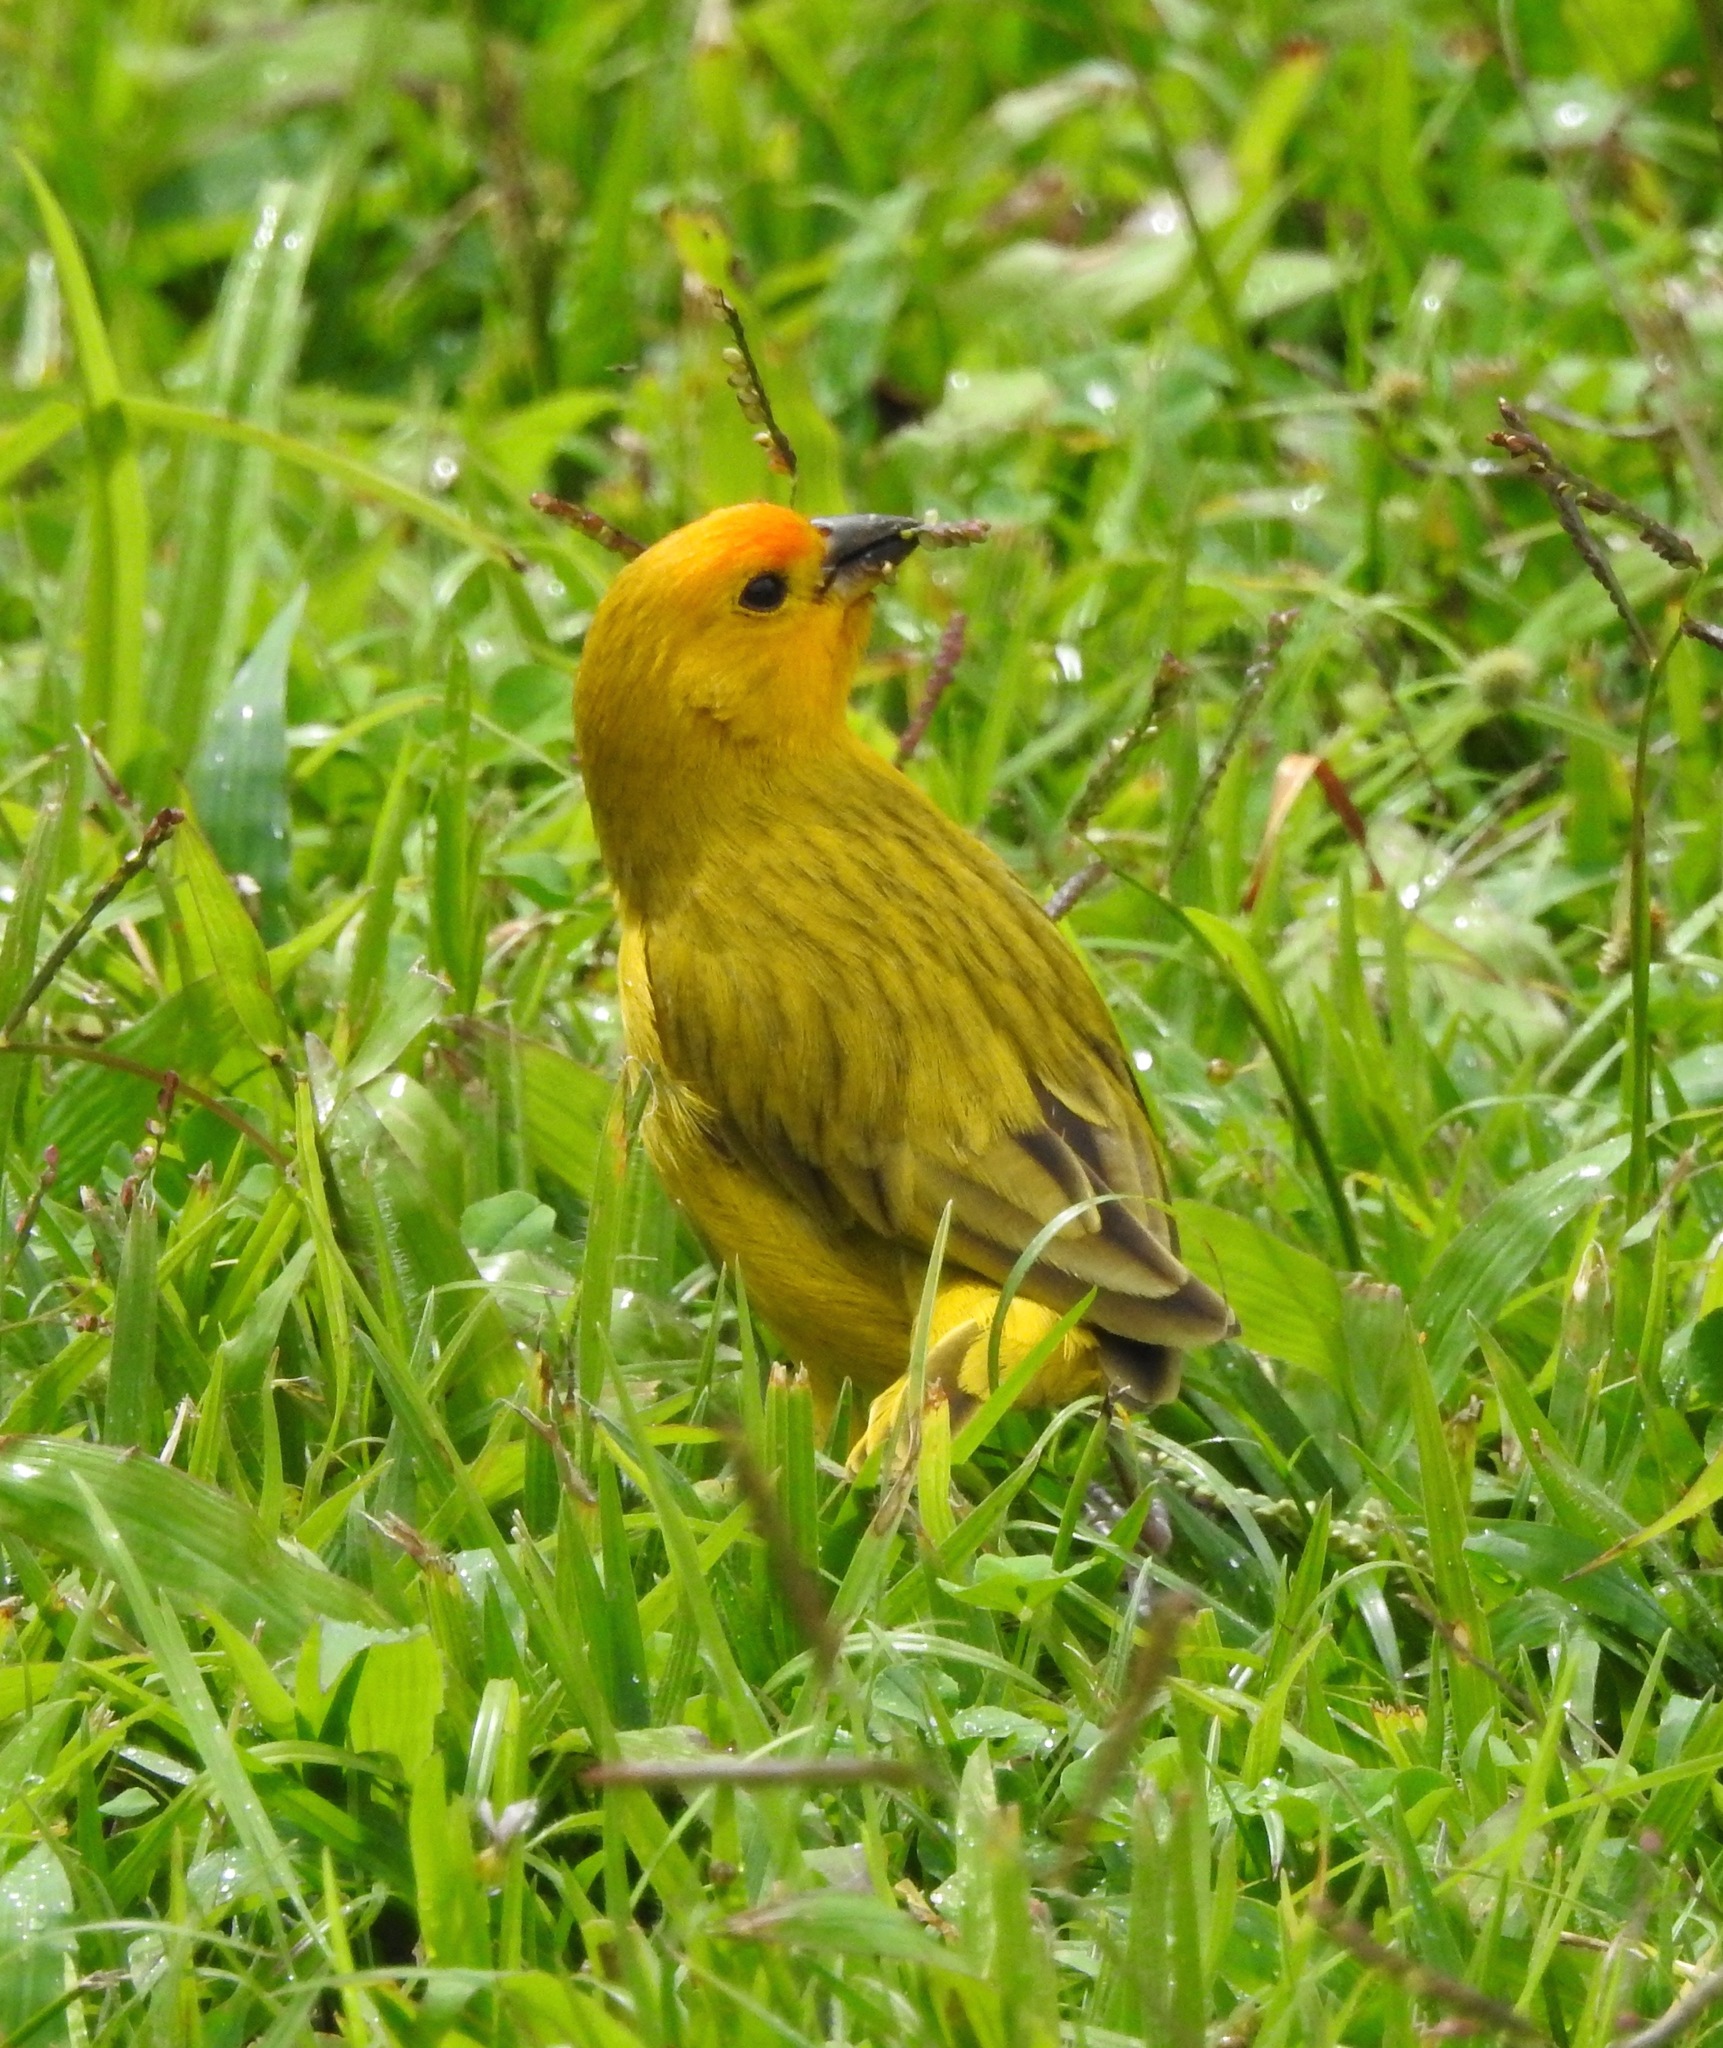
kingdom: Animalia
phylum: Chordata
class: Aves
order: Passeriformes
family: Thraupidae
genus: Sicalis
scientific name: Sicalis flaveola
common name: Saffron finch
